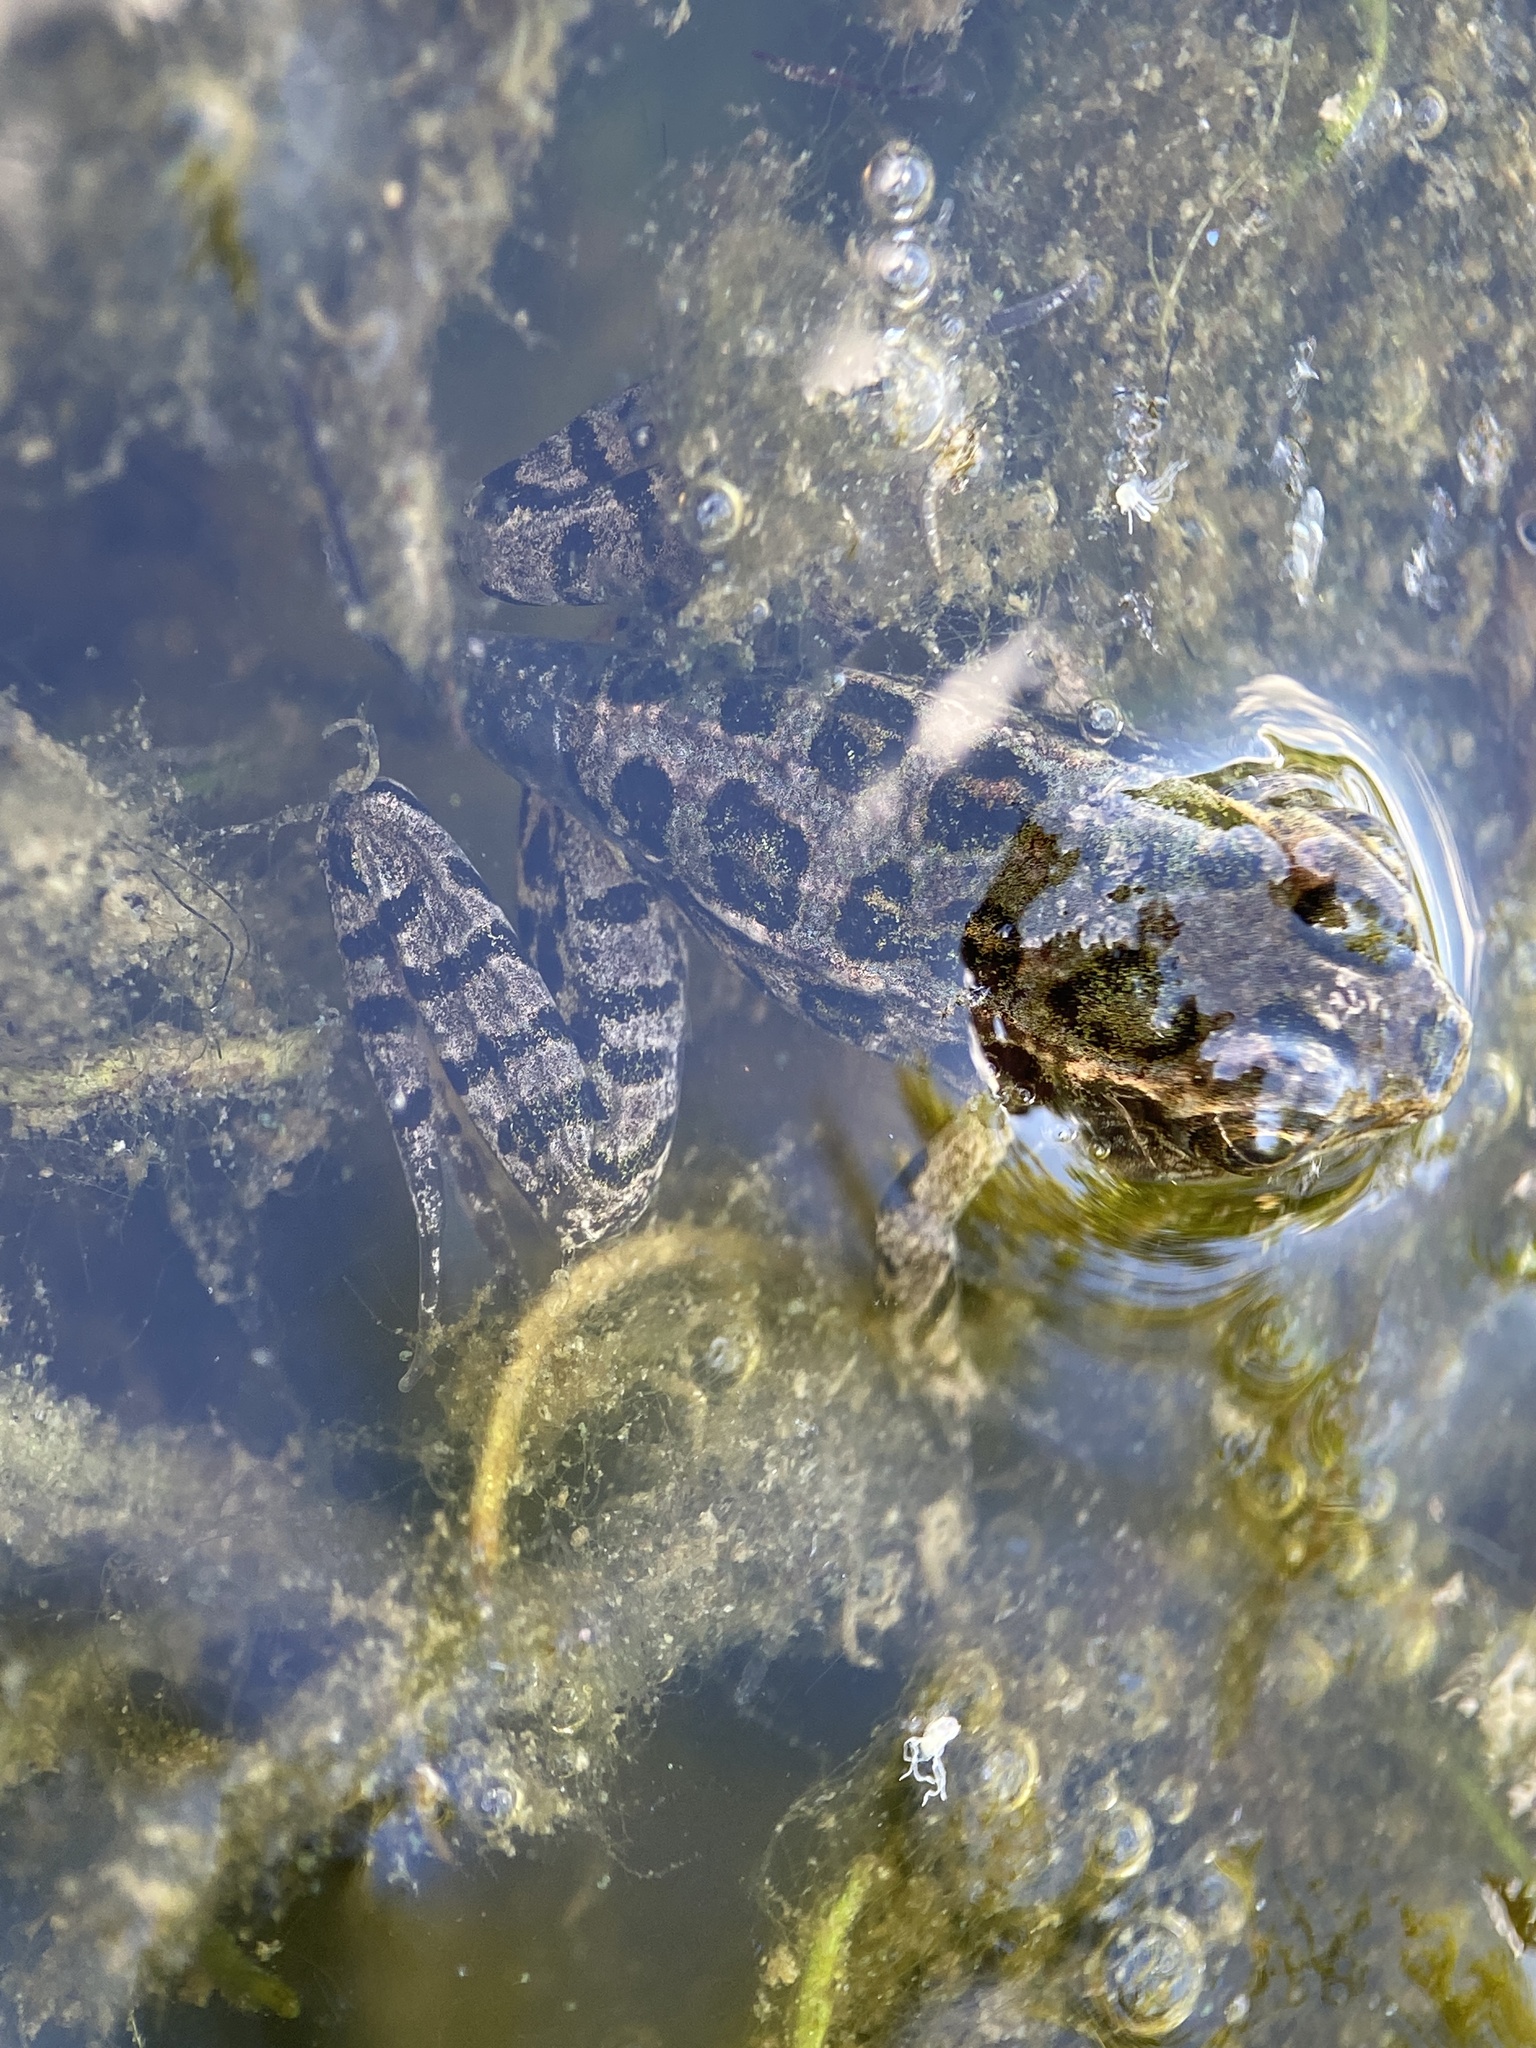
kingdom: Animalia
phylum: Chordata
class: Amphibia
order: Anura
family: Ranidae
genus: Lithobates
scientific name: Lithobates palustris
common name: Pickerel frog
